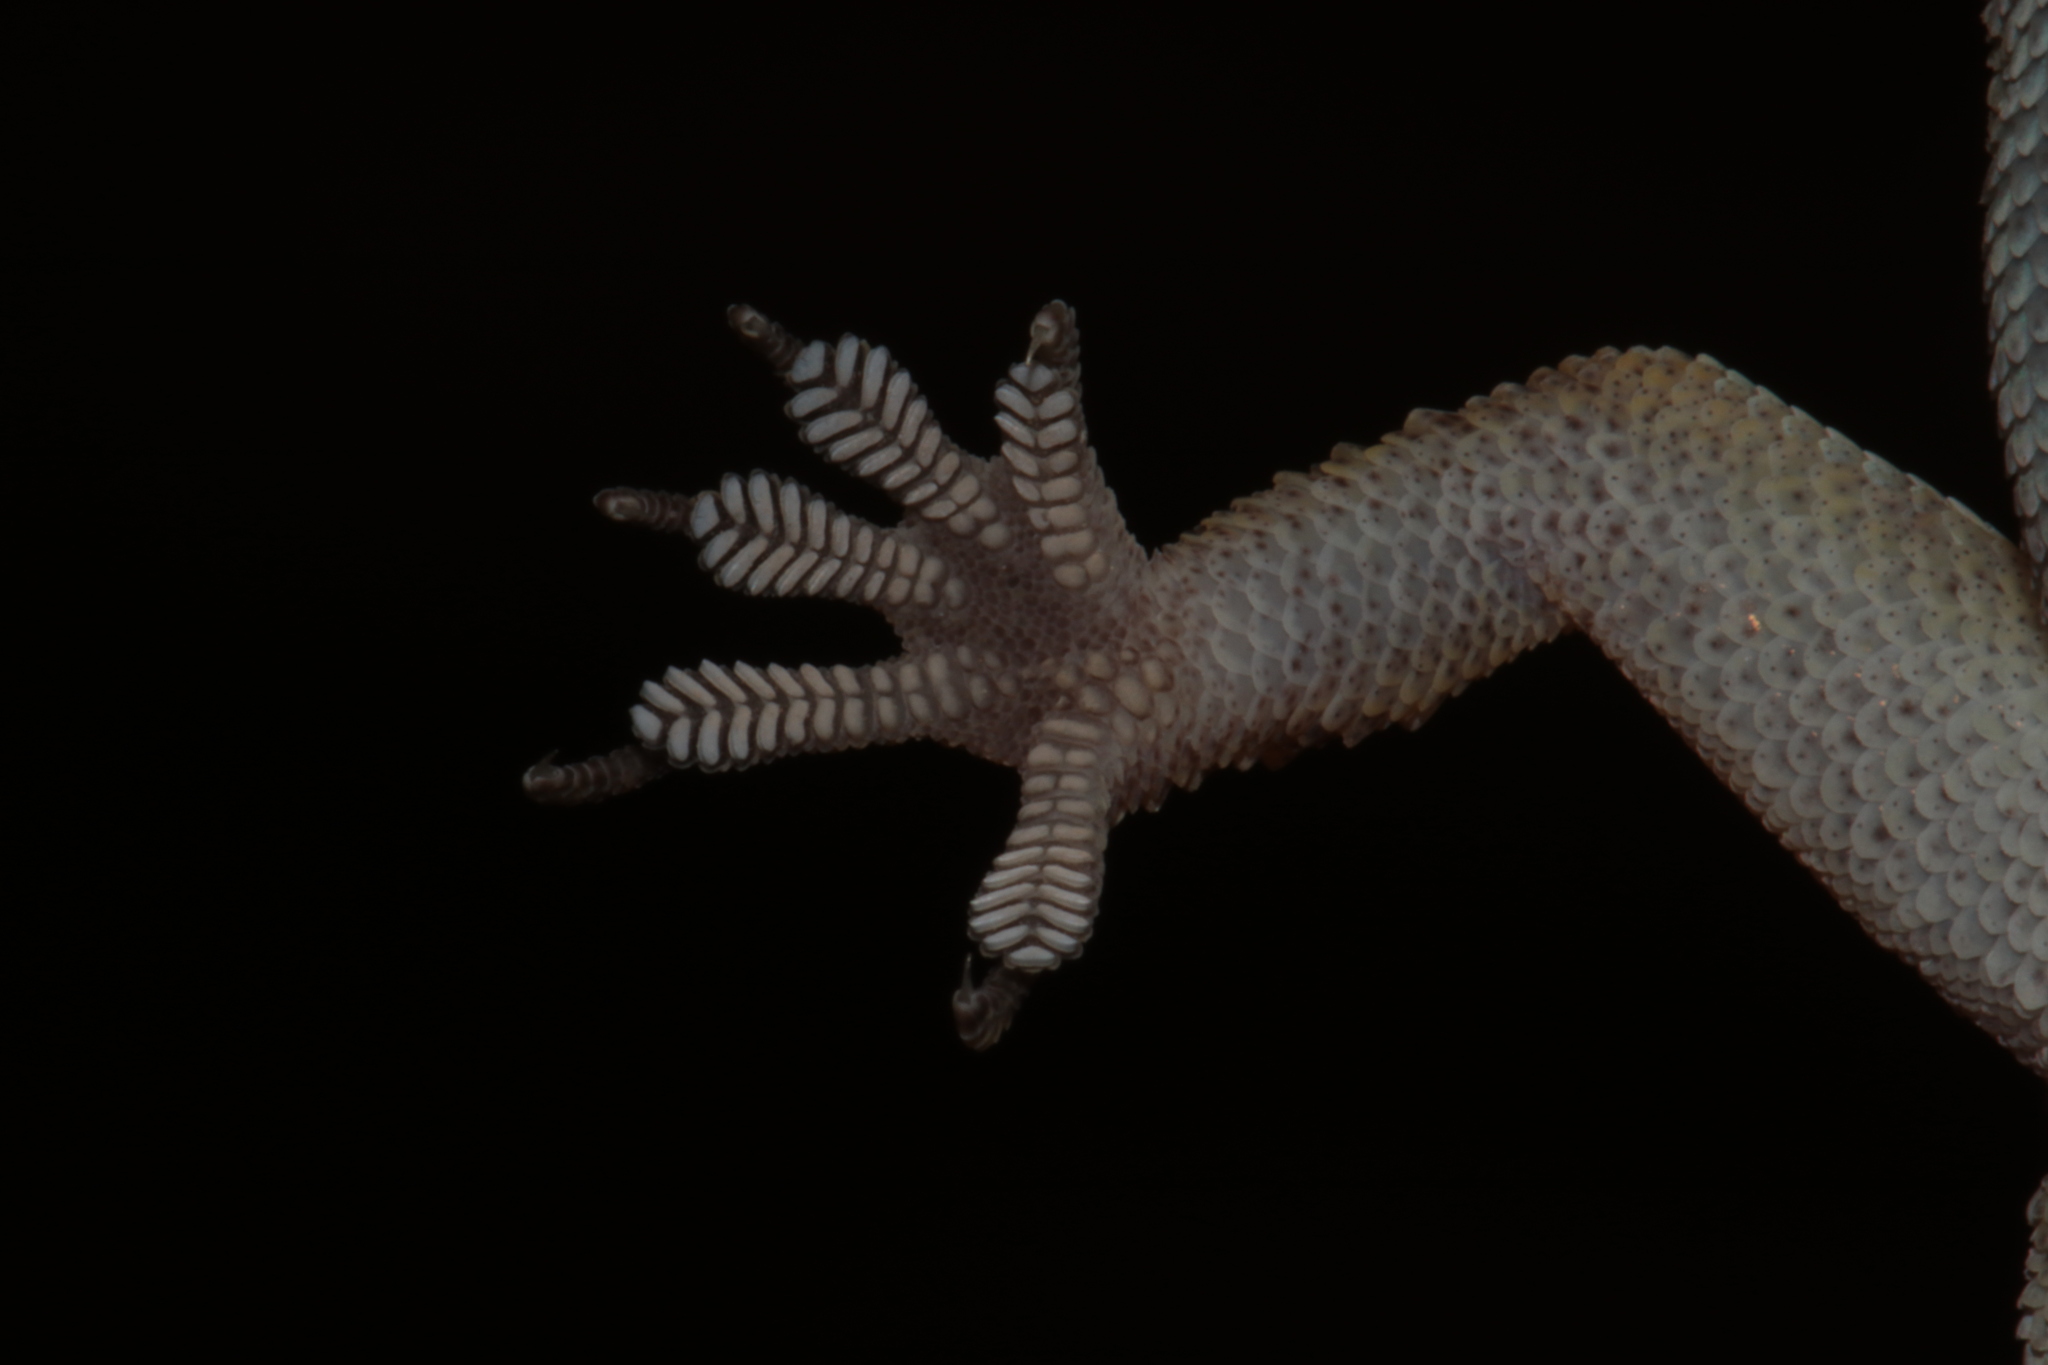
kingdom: Animalia
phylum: Chordata
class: Squamata
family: Gekkonidae
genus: Hemidactylus
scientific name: Hemidactylus granosus
